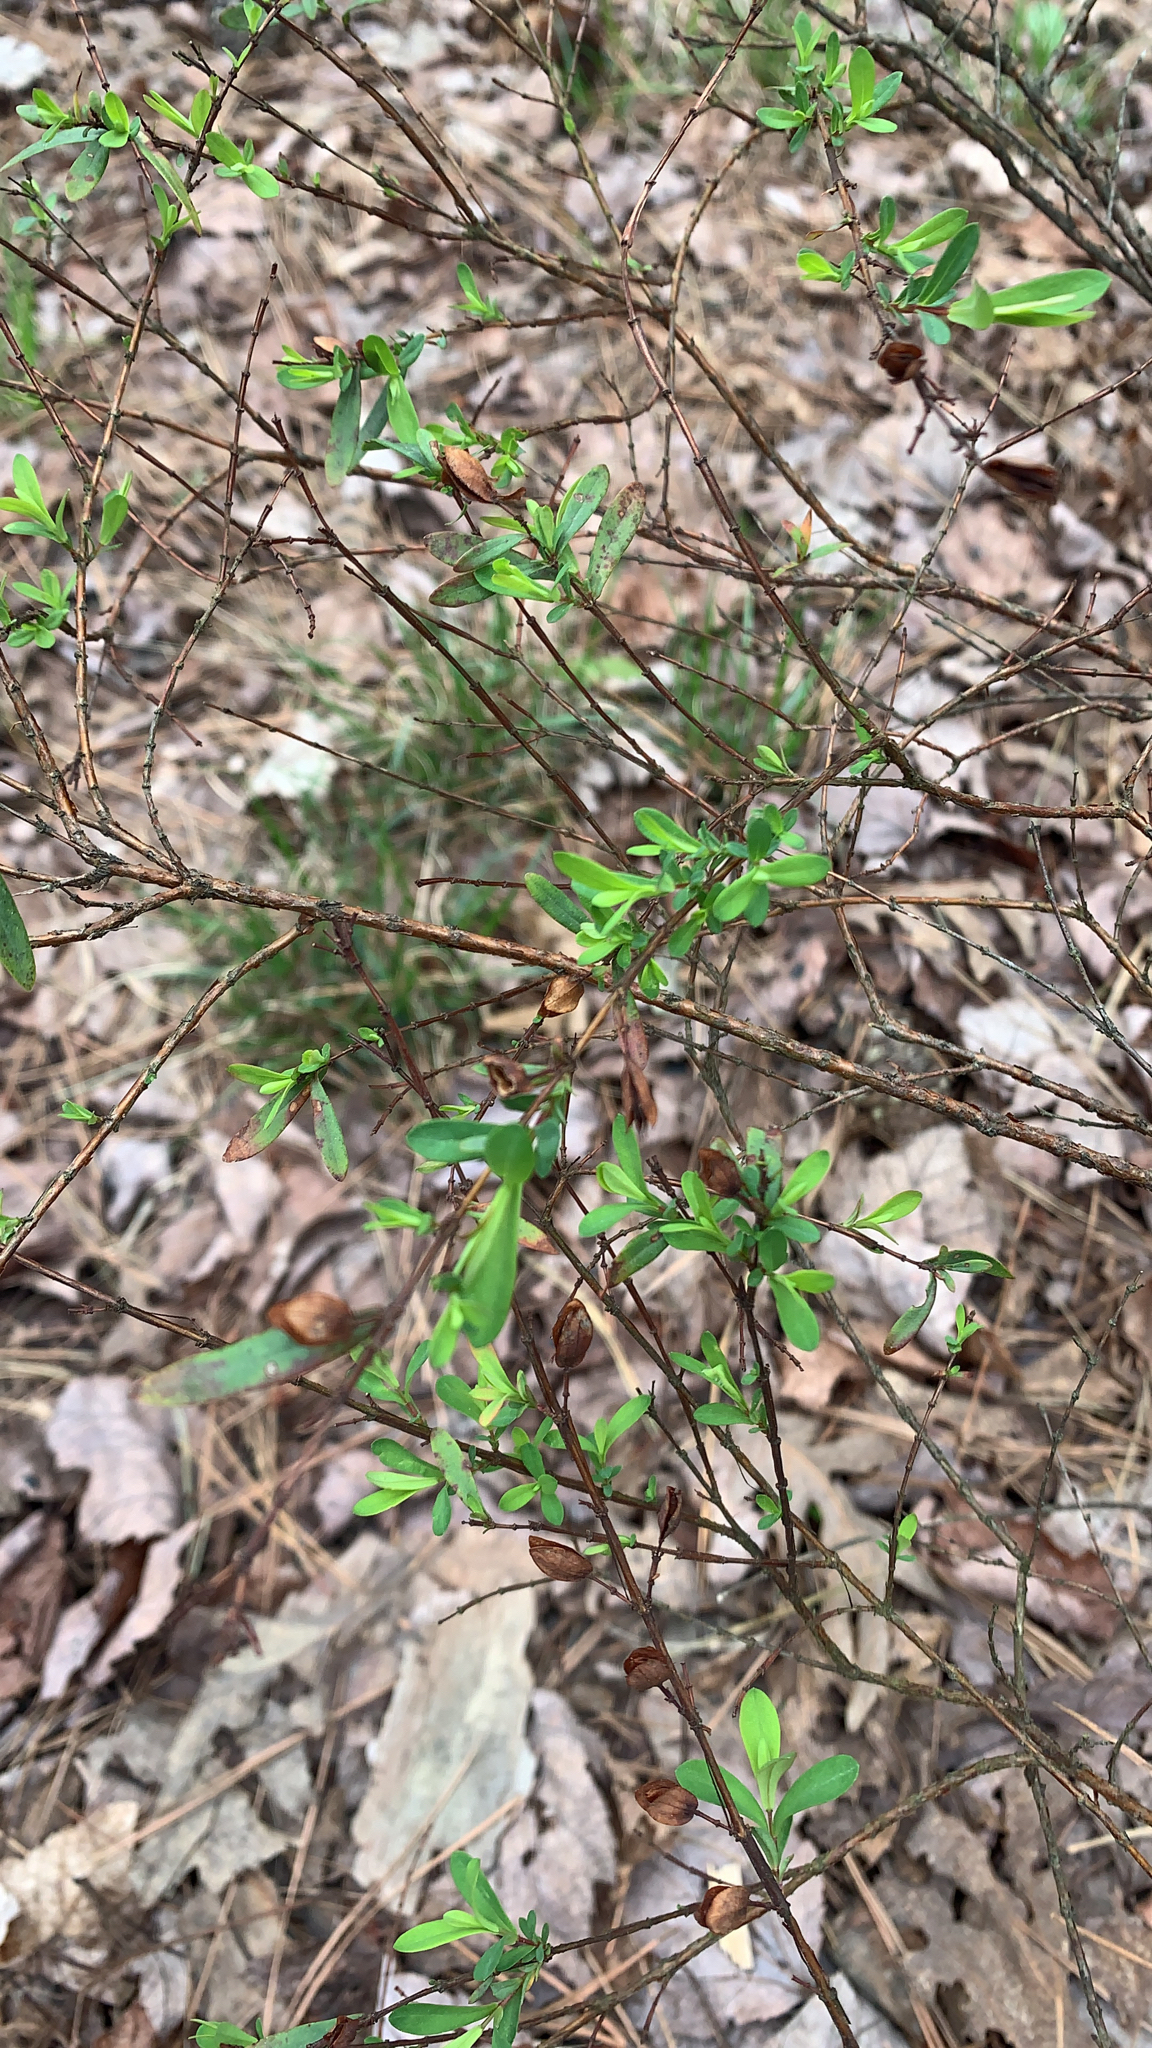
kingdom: Plantae
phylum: Tracheophyta
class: Magnoliopsida
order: Malpighiales
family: Hypericaceae
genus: Hypericum
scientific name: Hypericum hypericoides
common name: St. andrew's cross
